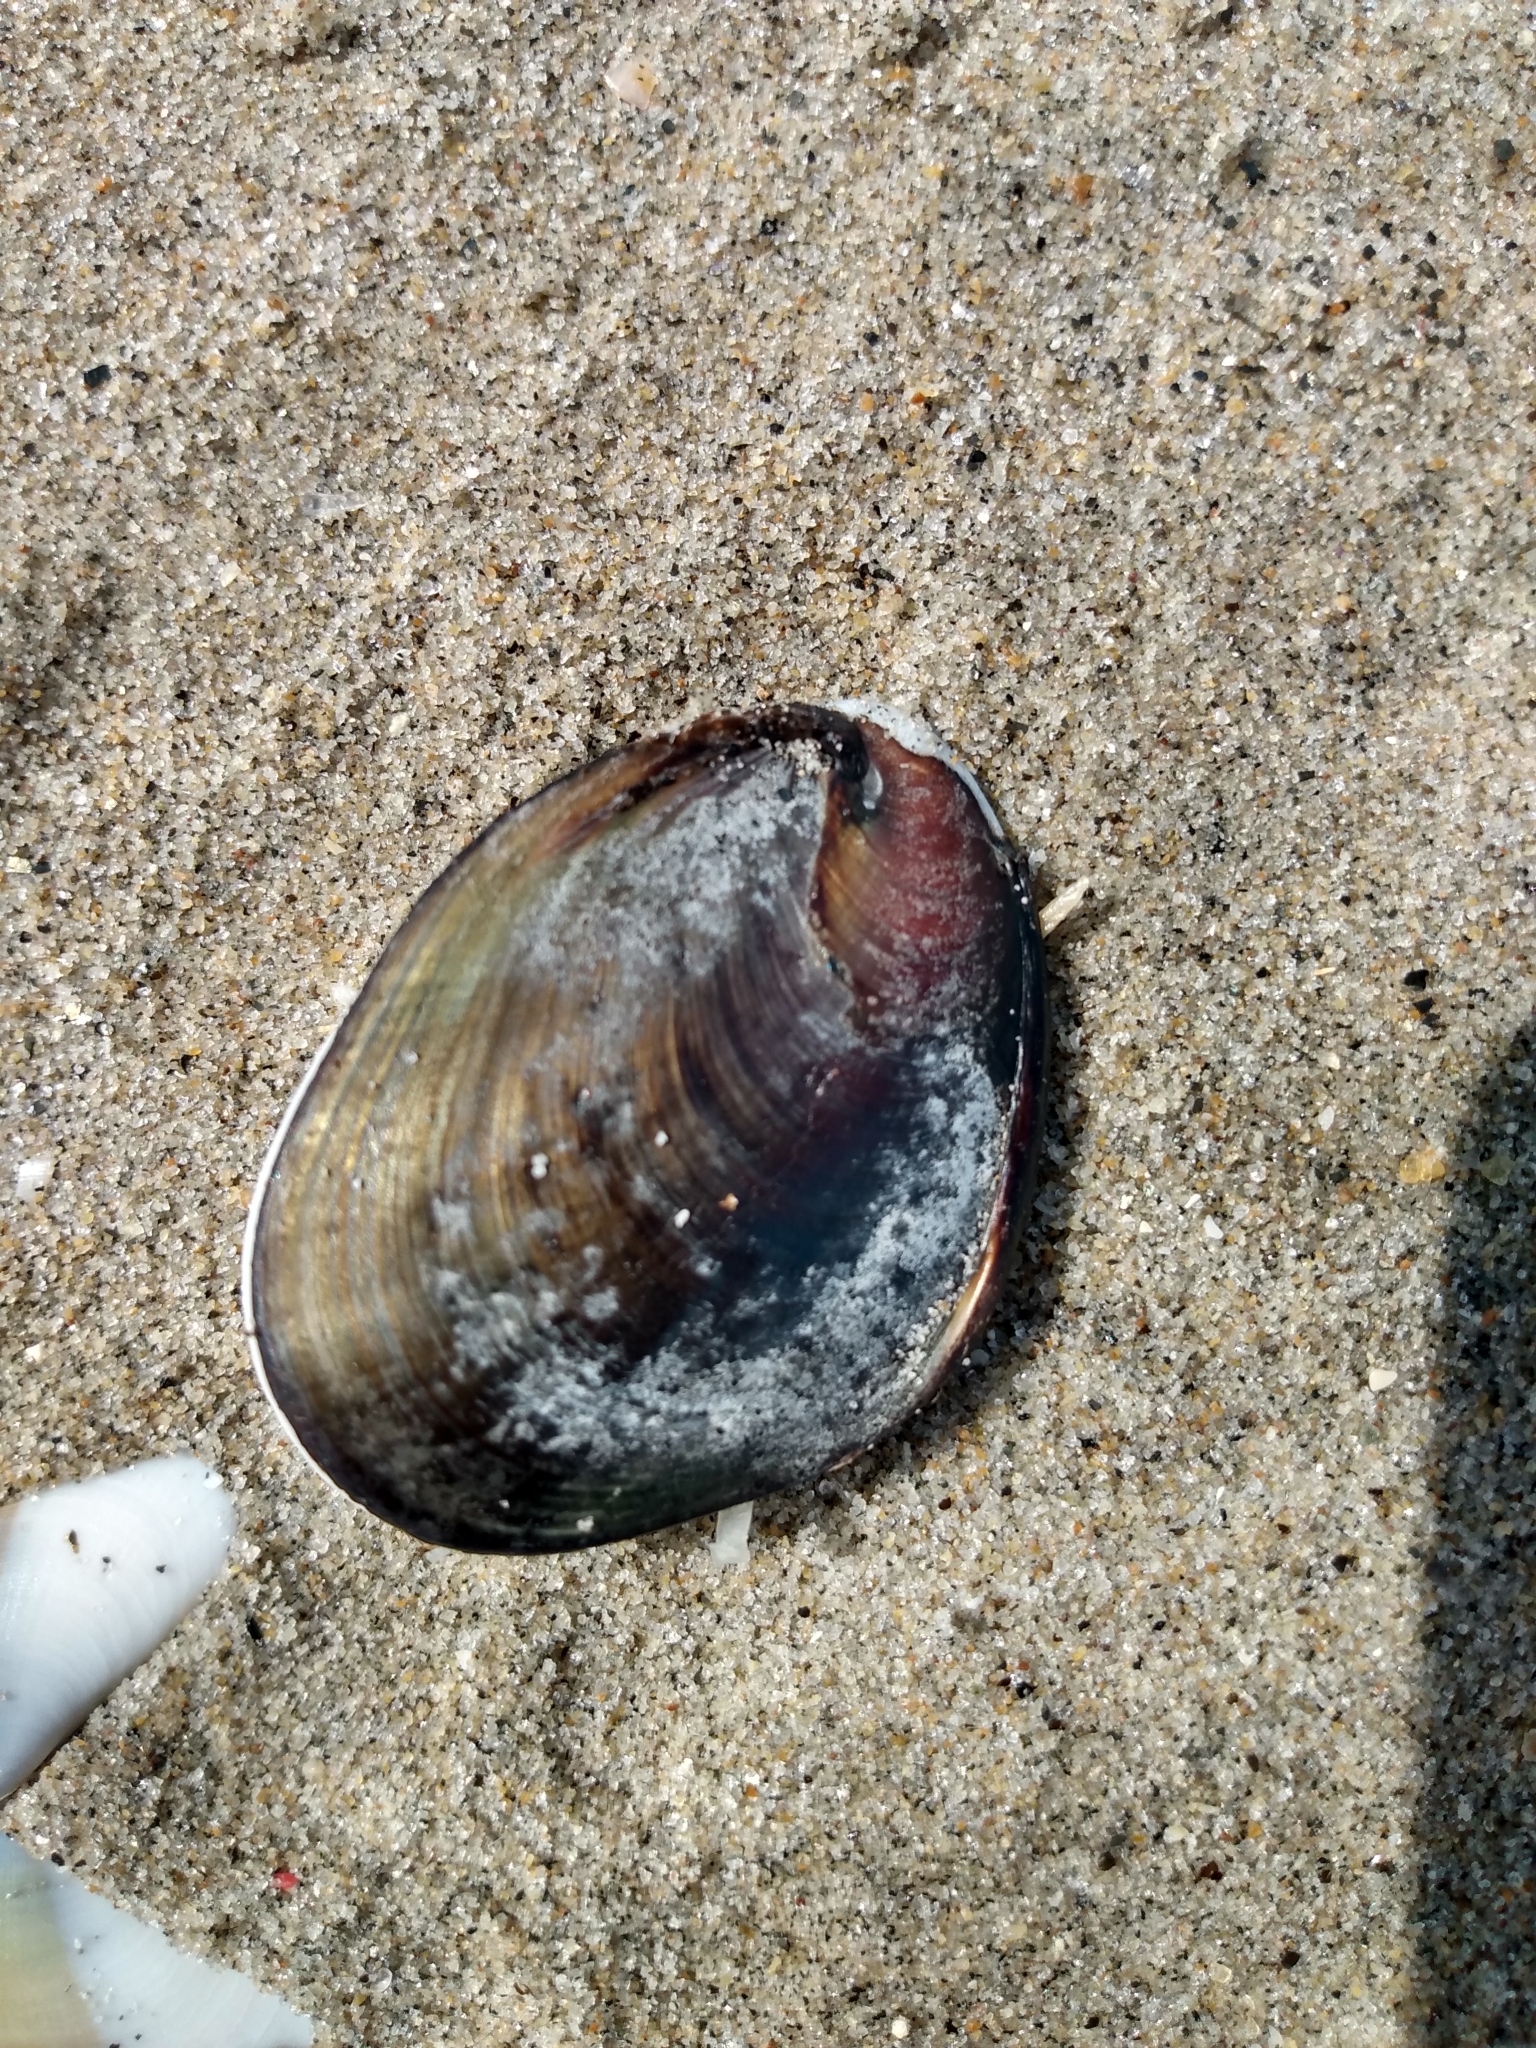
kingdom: Animalia
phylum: Mollusca
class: Gastropoda
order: Trochida
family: Turbinidae
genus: Megastraea
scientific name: Megastraea undosa
